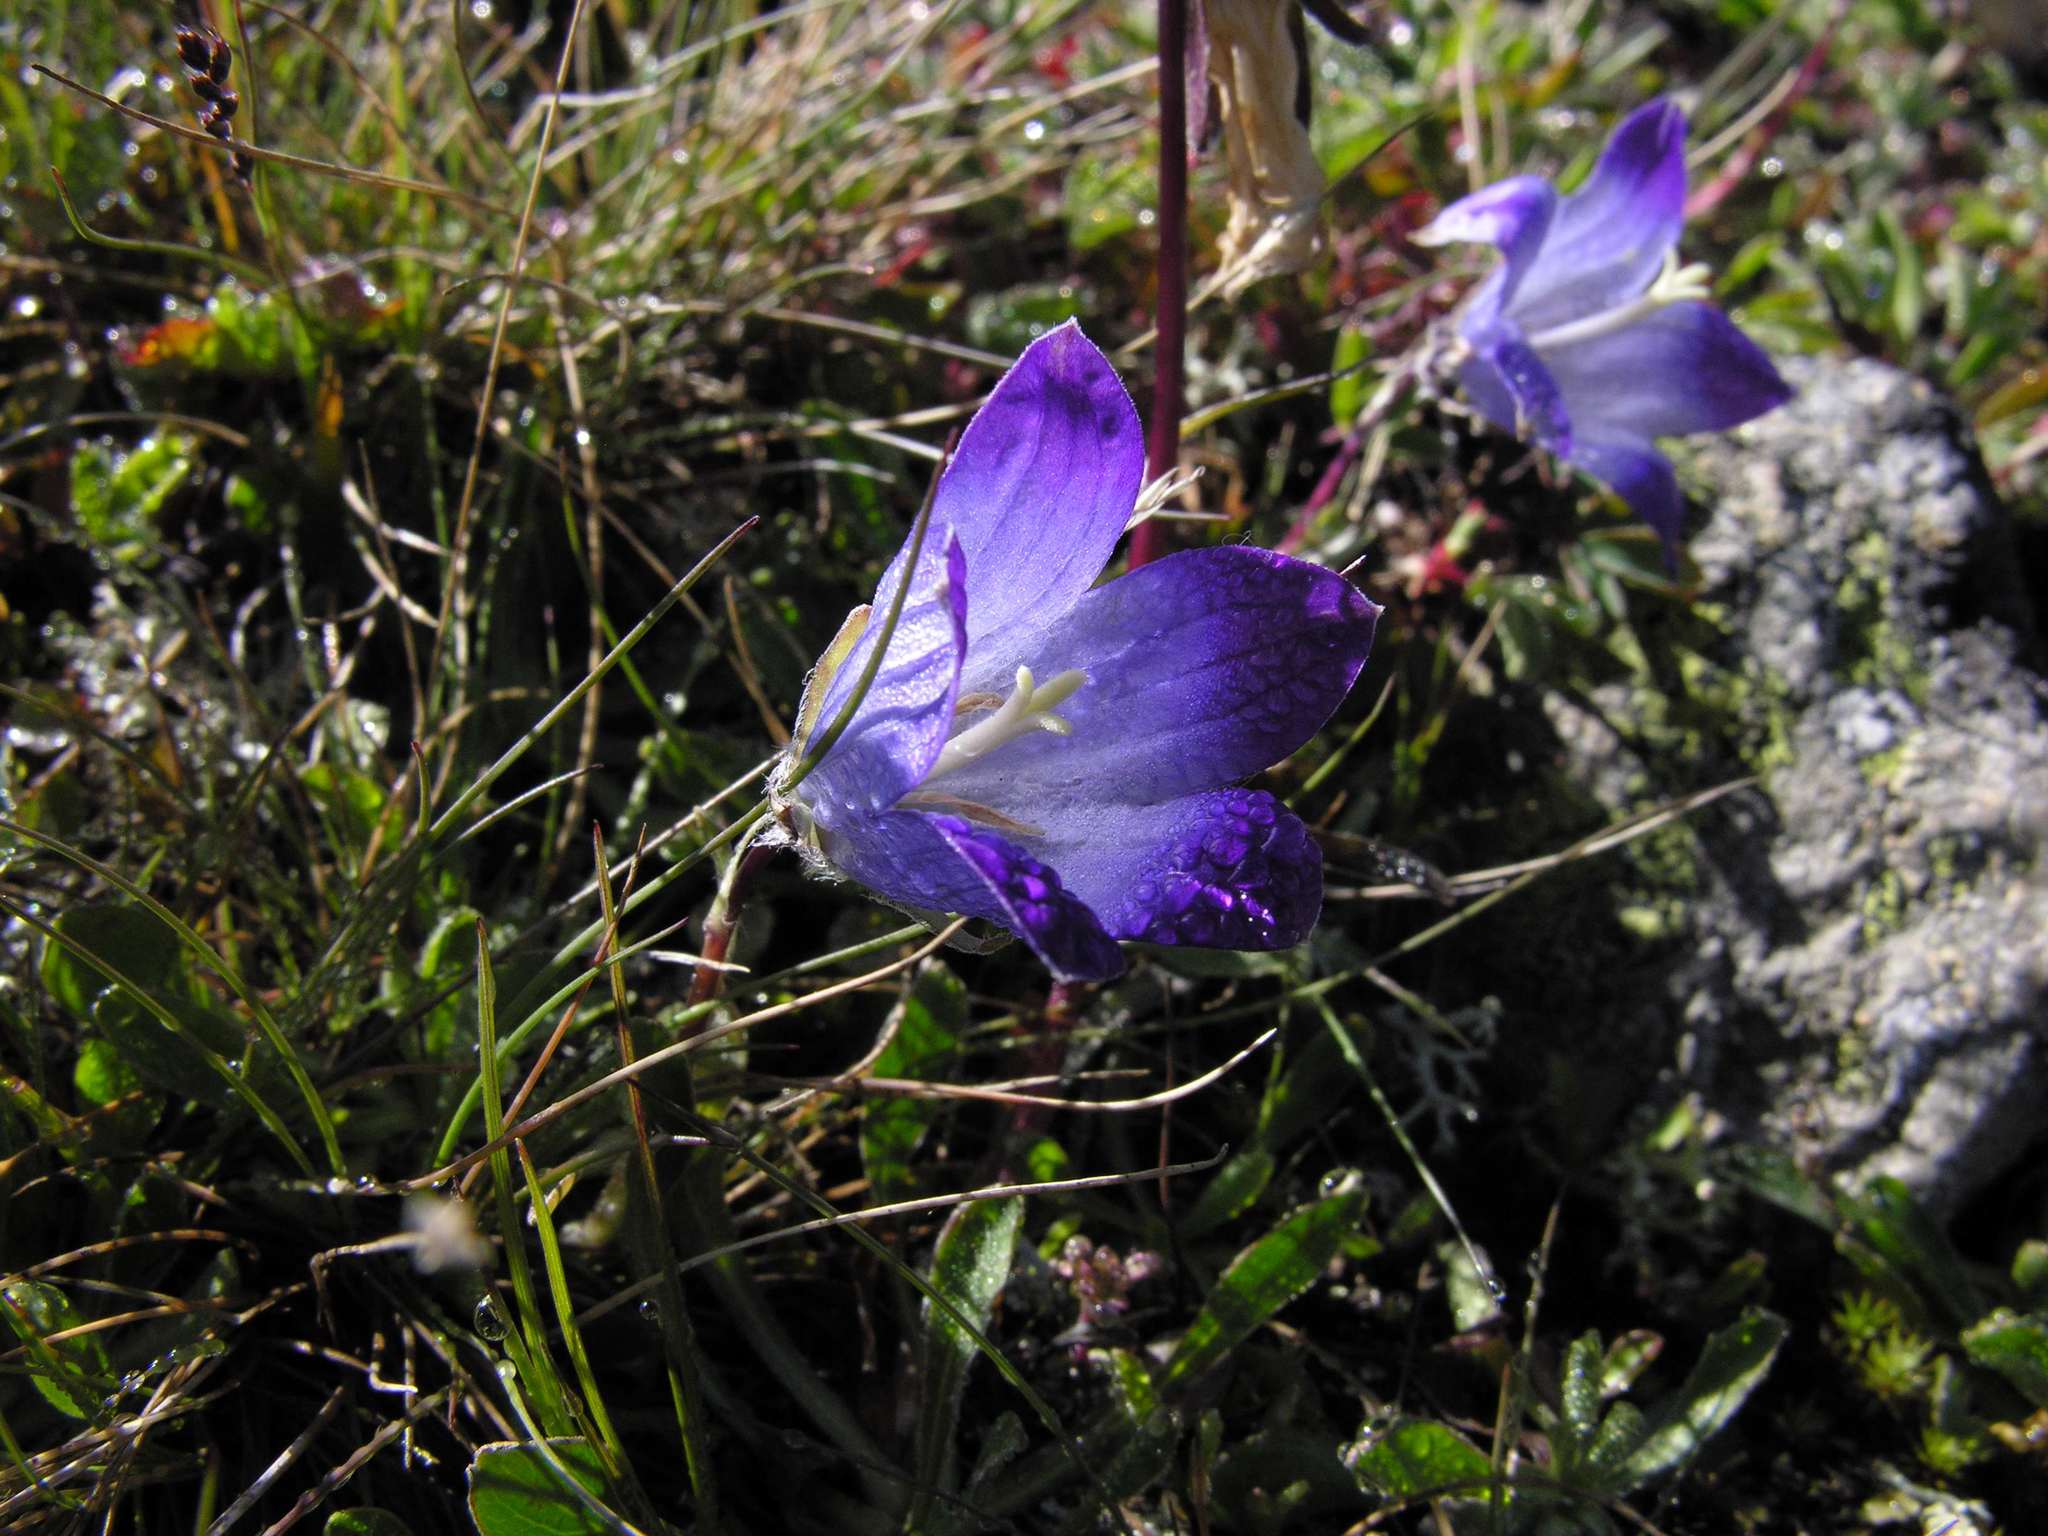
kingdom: Plantae
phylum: Tracheophyta
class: Magnoliopsida
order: Asterales
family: Campanulaceae
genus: Campanula
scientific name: Campanula tridentata
